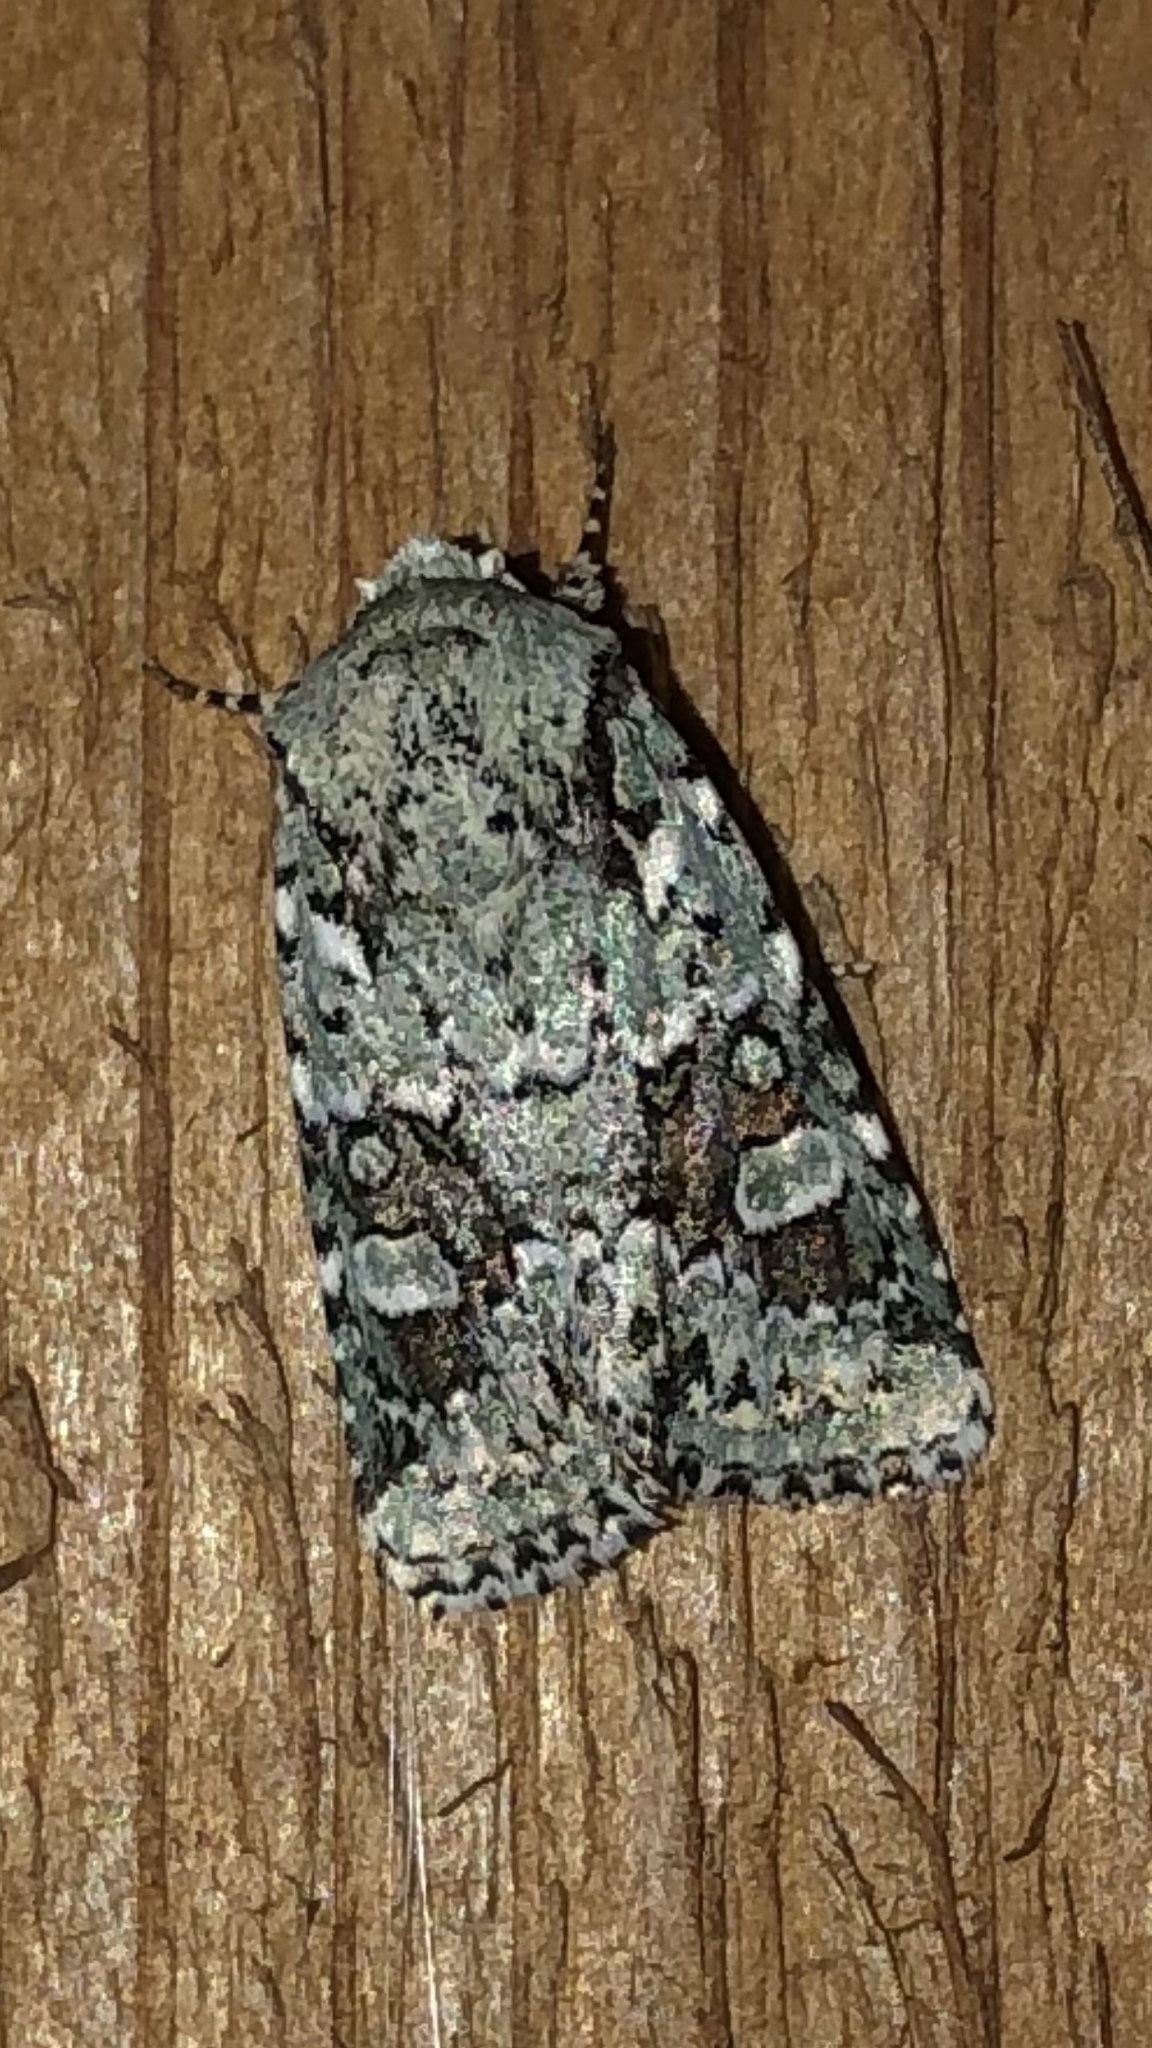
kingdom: Animalia
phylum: Arthropoda
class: Insecta
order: Lepidoptera
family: Noctuidae
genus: Lacinipolia
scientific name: Lacinipolia laudabilis
